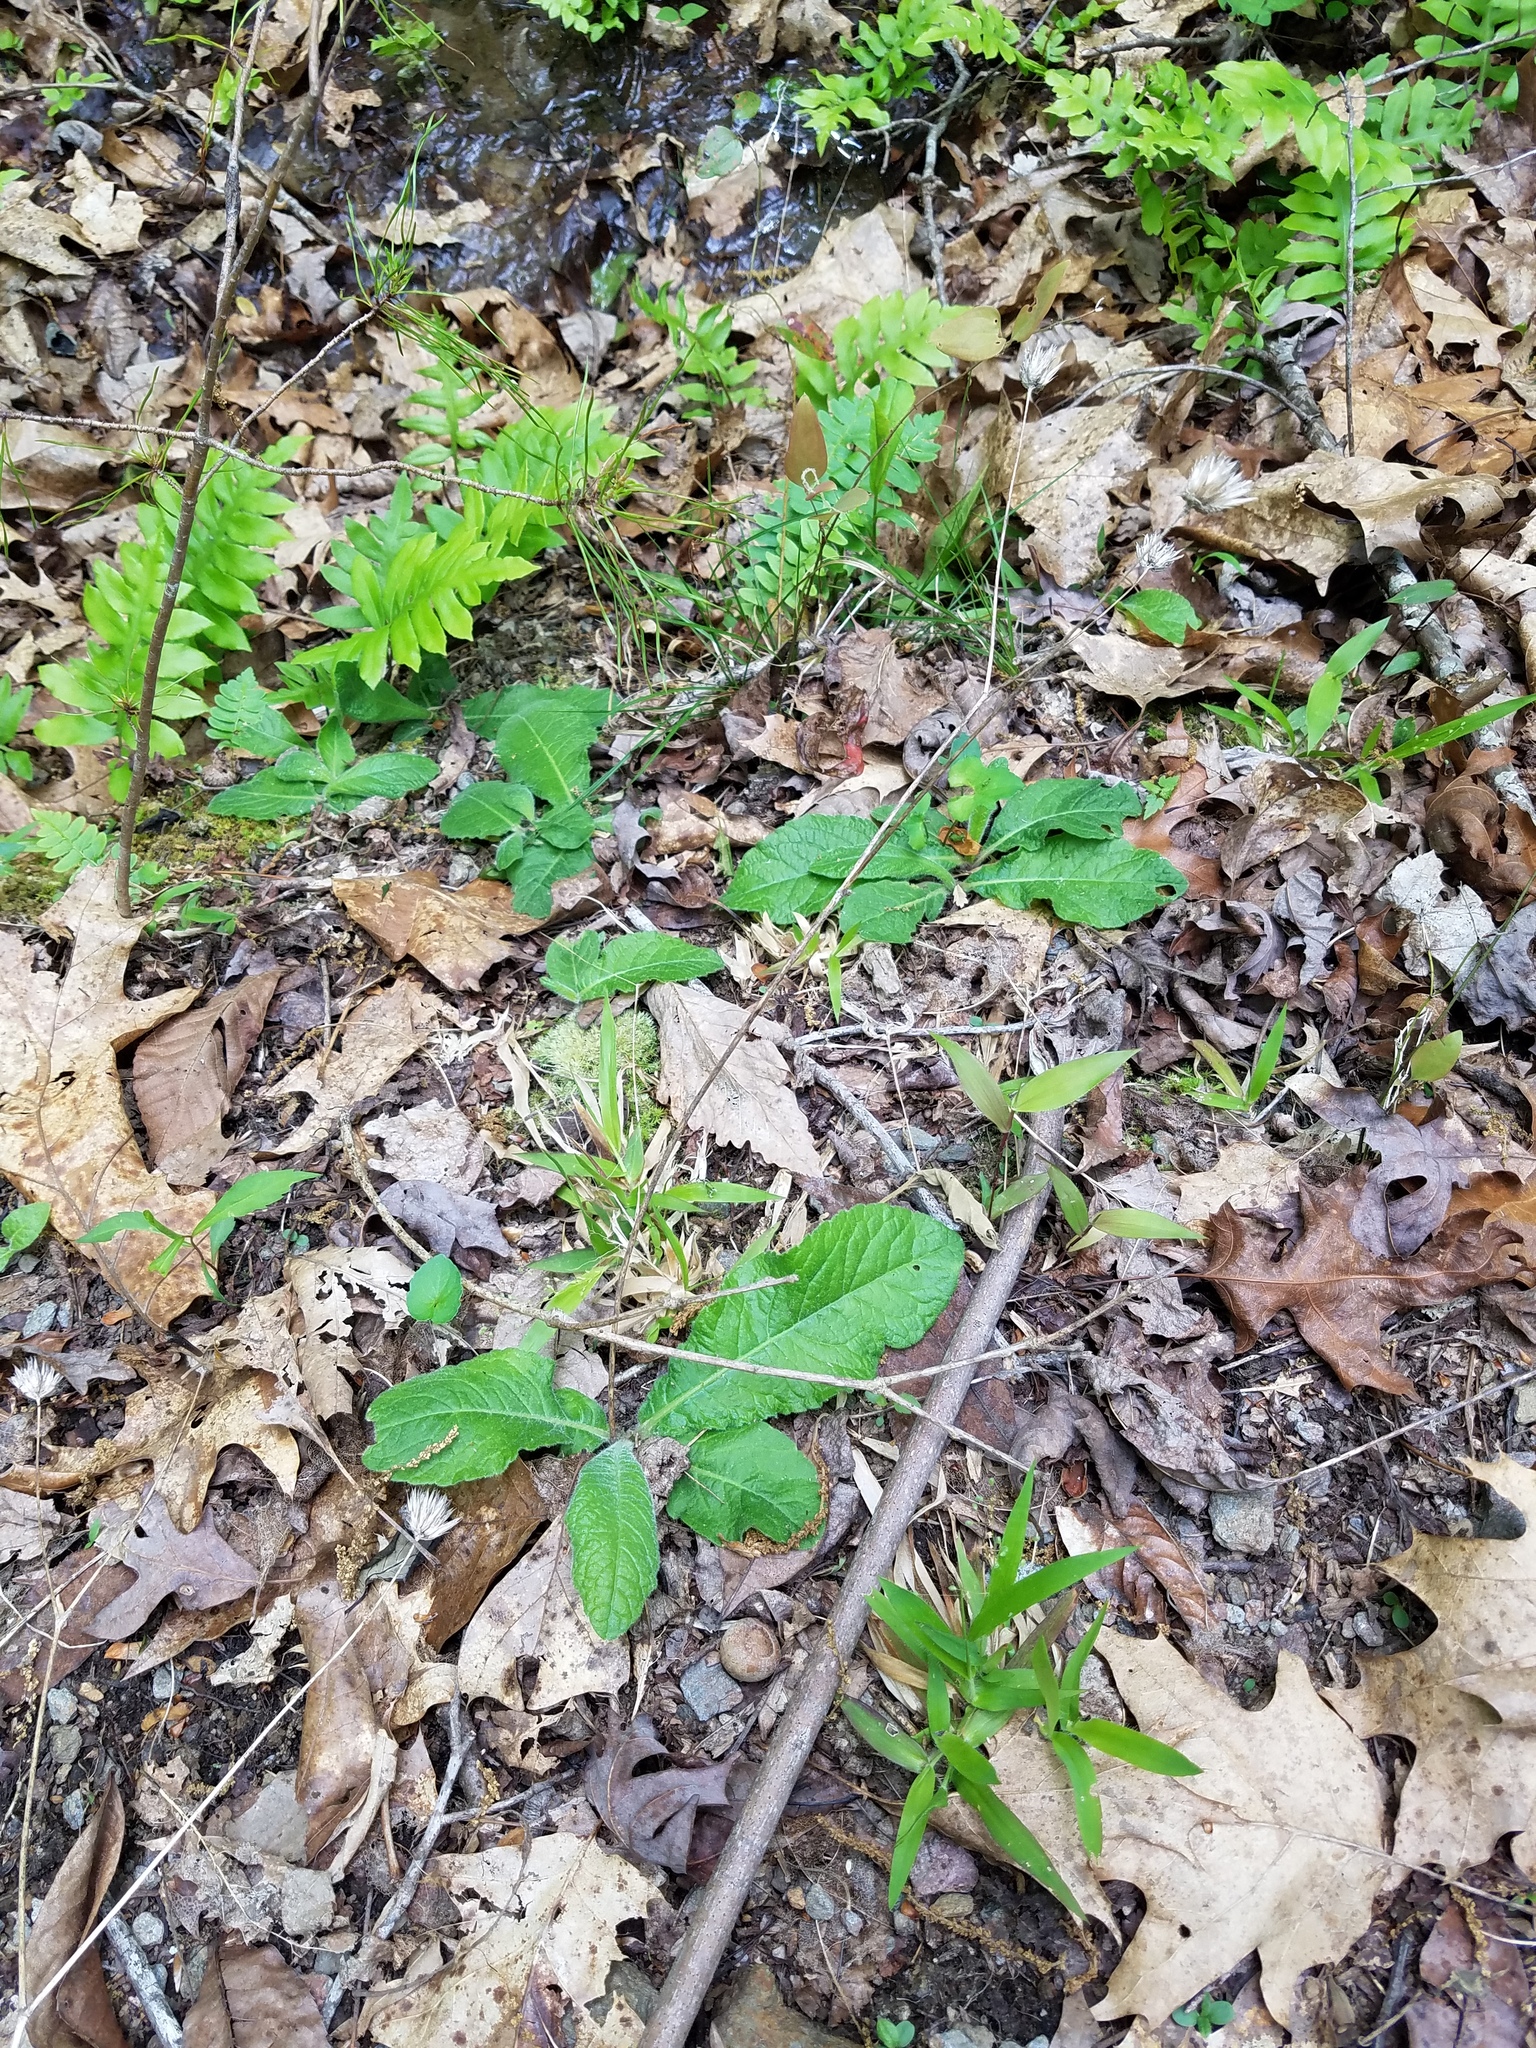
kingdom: Plantae
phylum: Tracheophyta
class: Magnoliopsida
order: Asterales
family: Asteraceae
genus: Elephantopus
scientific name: Elephantopus tomentosus
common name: Tobacco-weed
